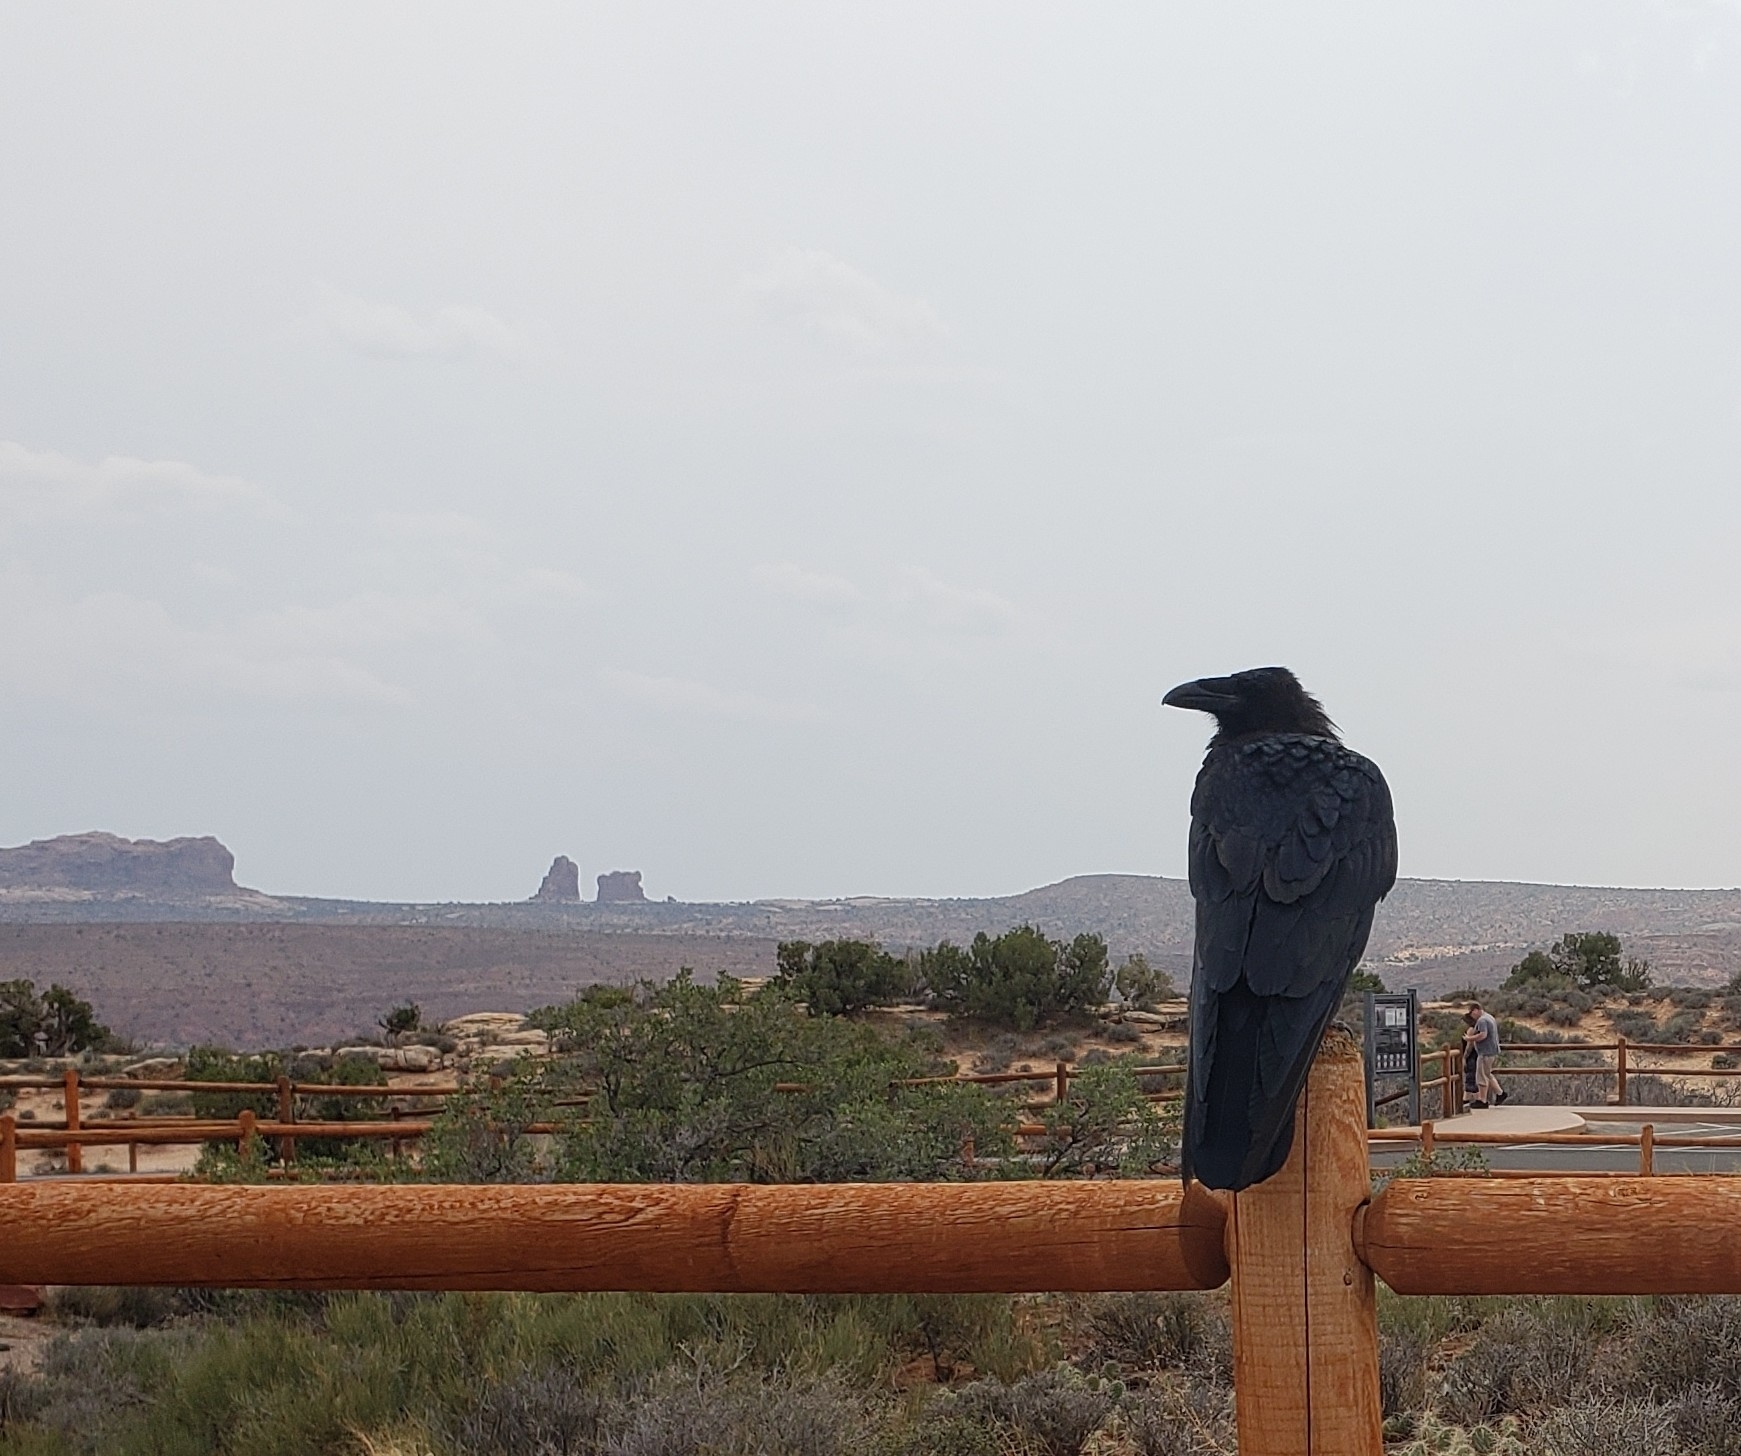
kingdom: Animalia
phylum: Chordata
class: Aves
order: Passeriformes
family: Corvidae
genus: Corvus
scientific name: Corvus corax
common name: Common raven
